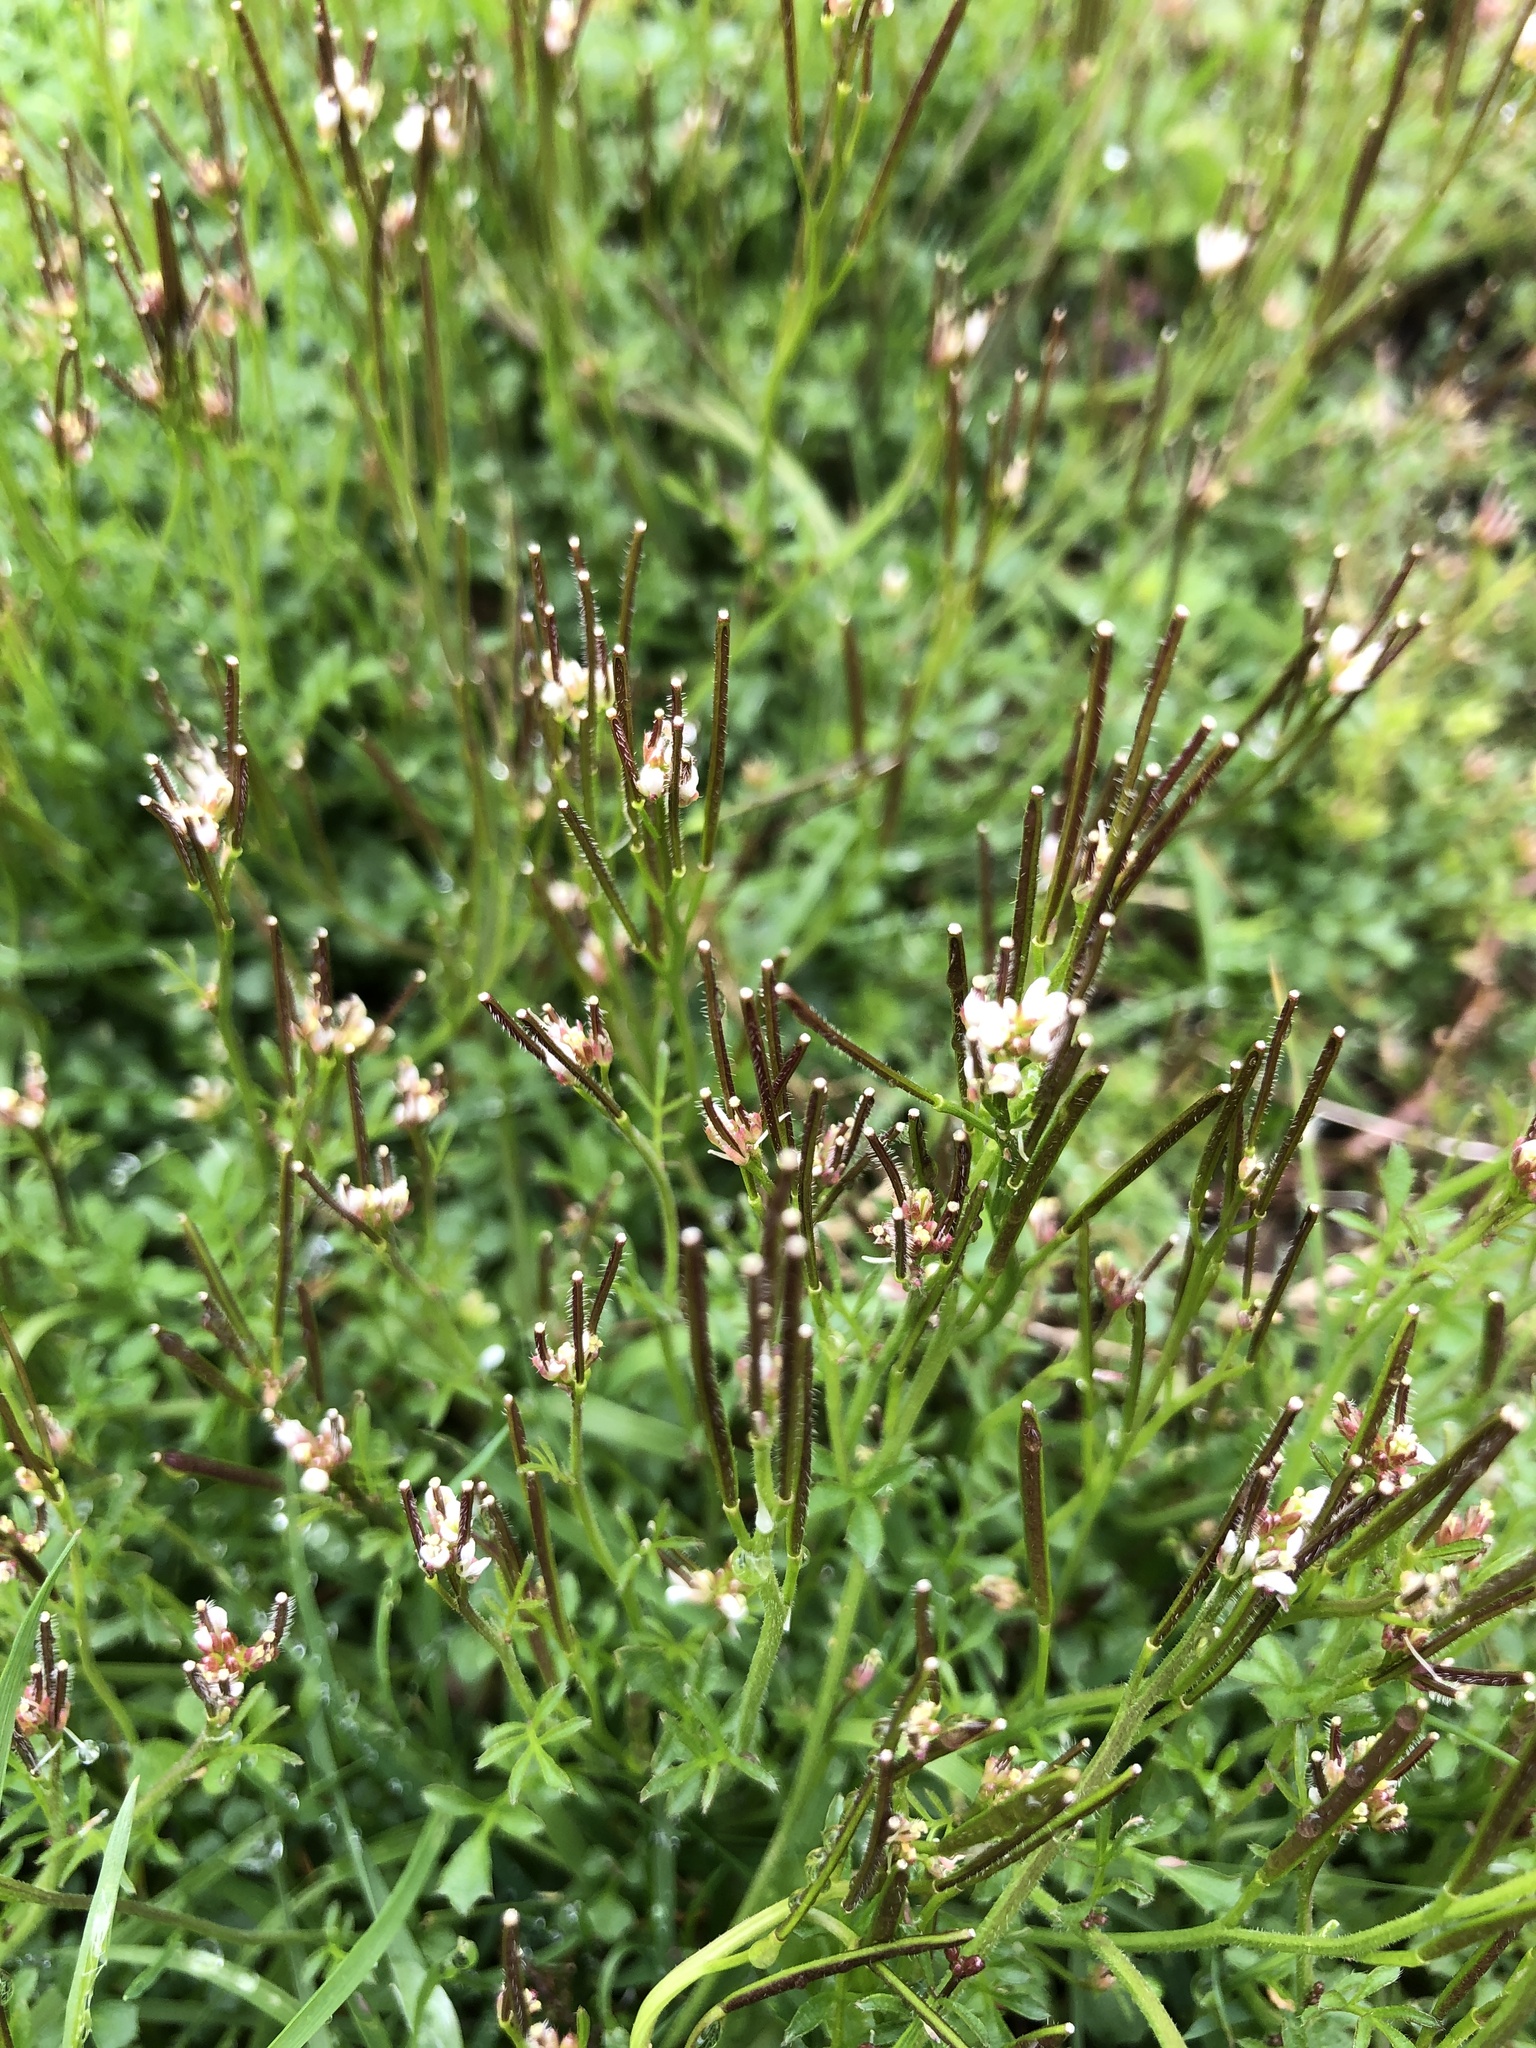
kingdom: Plantae
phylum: Tracheophyta
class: Magnoliopsida
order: Brassicales
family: Brassicaceae
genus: Cardamine
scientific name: Cardamine hirsuta
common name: Hairy bittercress
